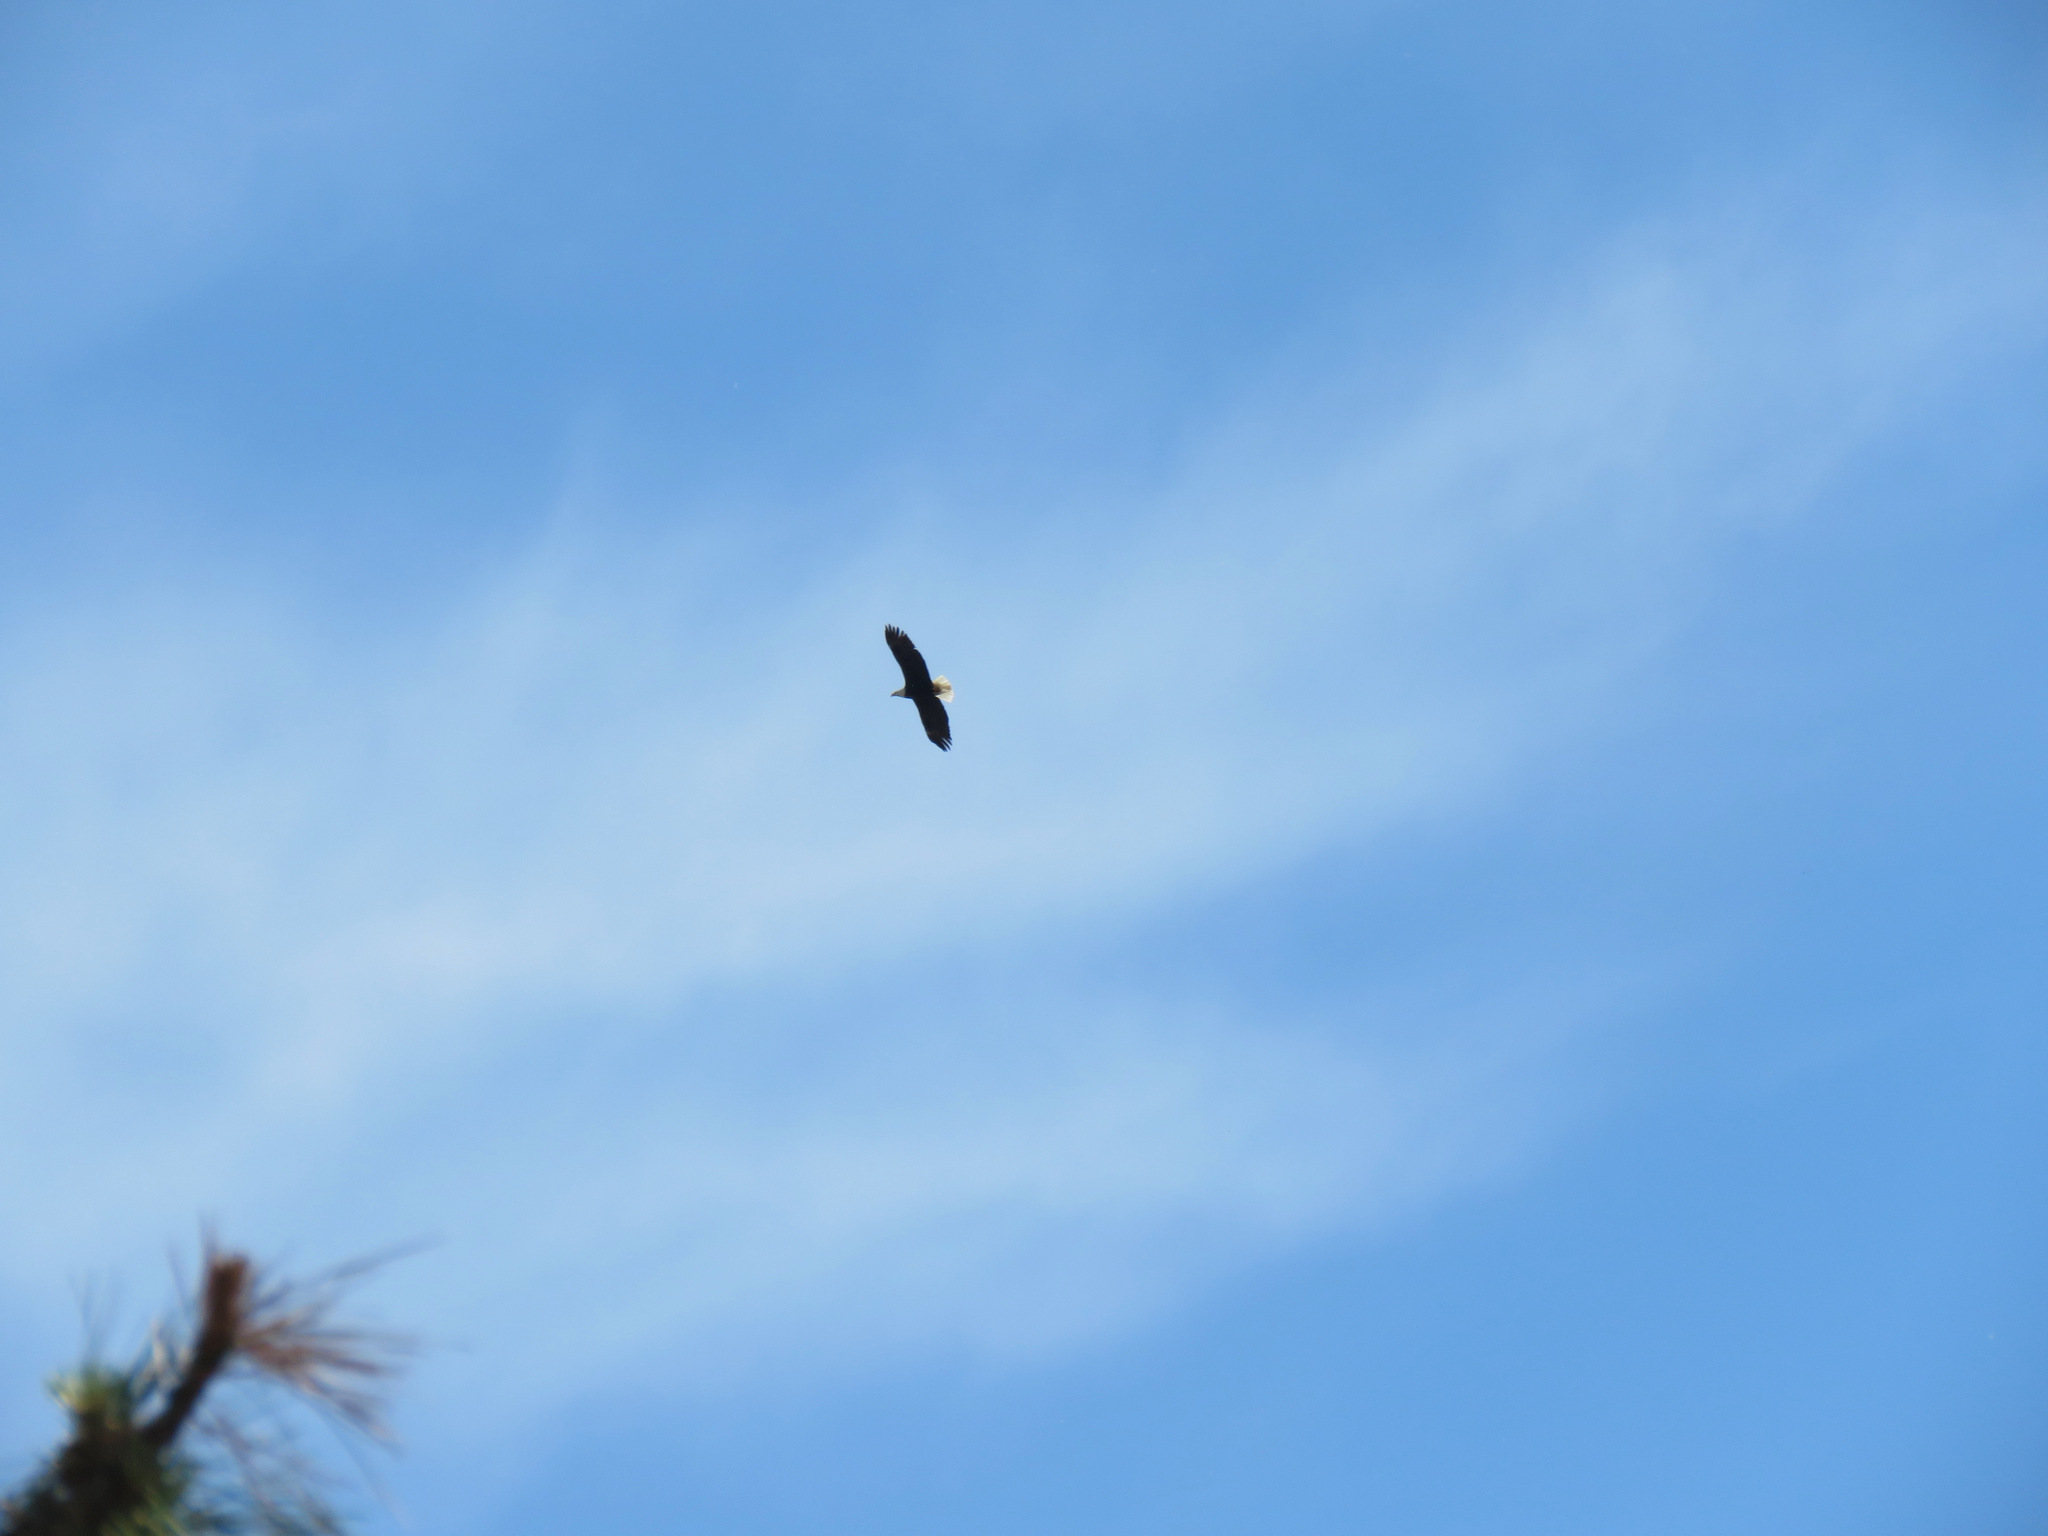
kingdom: Animalia
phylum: Chordata
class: Aves
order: Accipitriformes
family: Accipitridae
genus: Haliaeetus
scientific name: Haliaeetus leucocephalus
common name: Bald eagle
